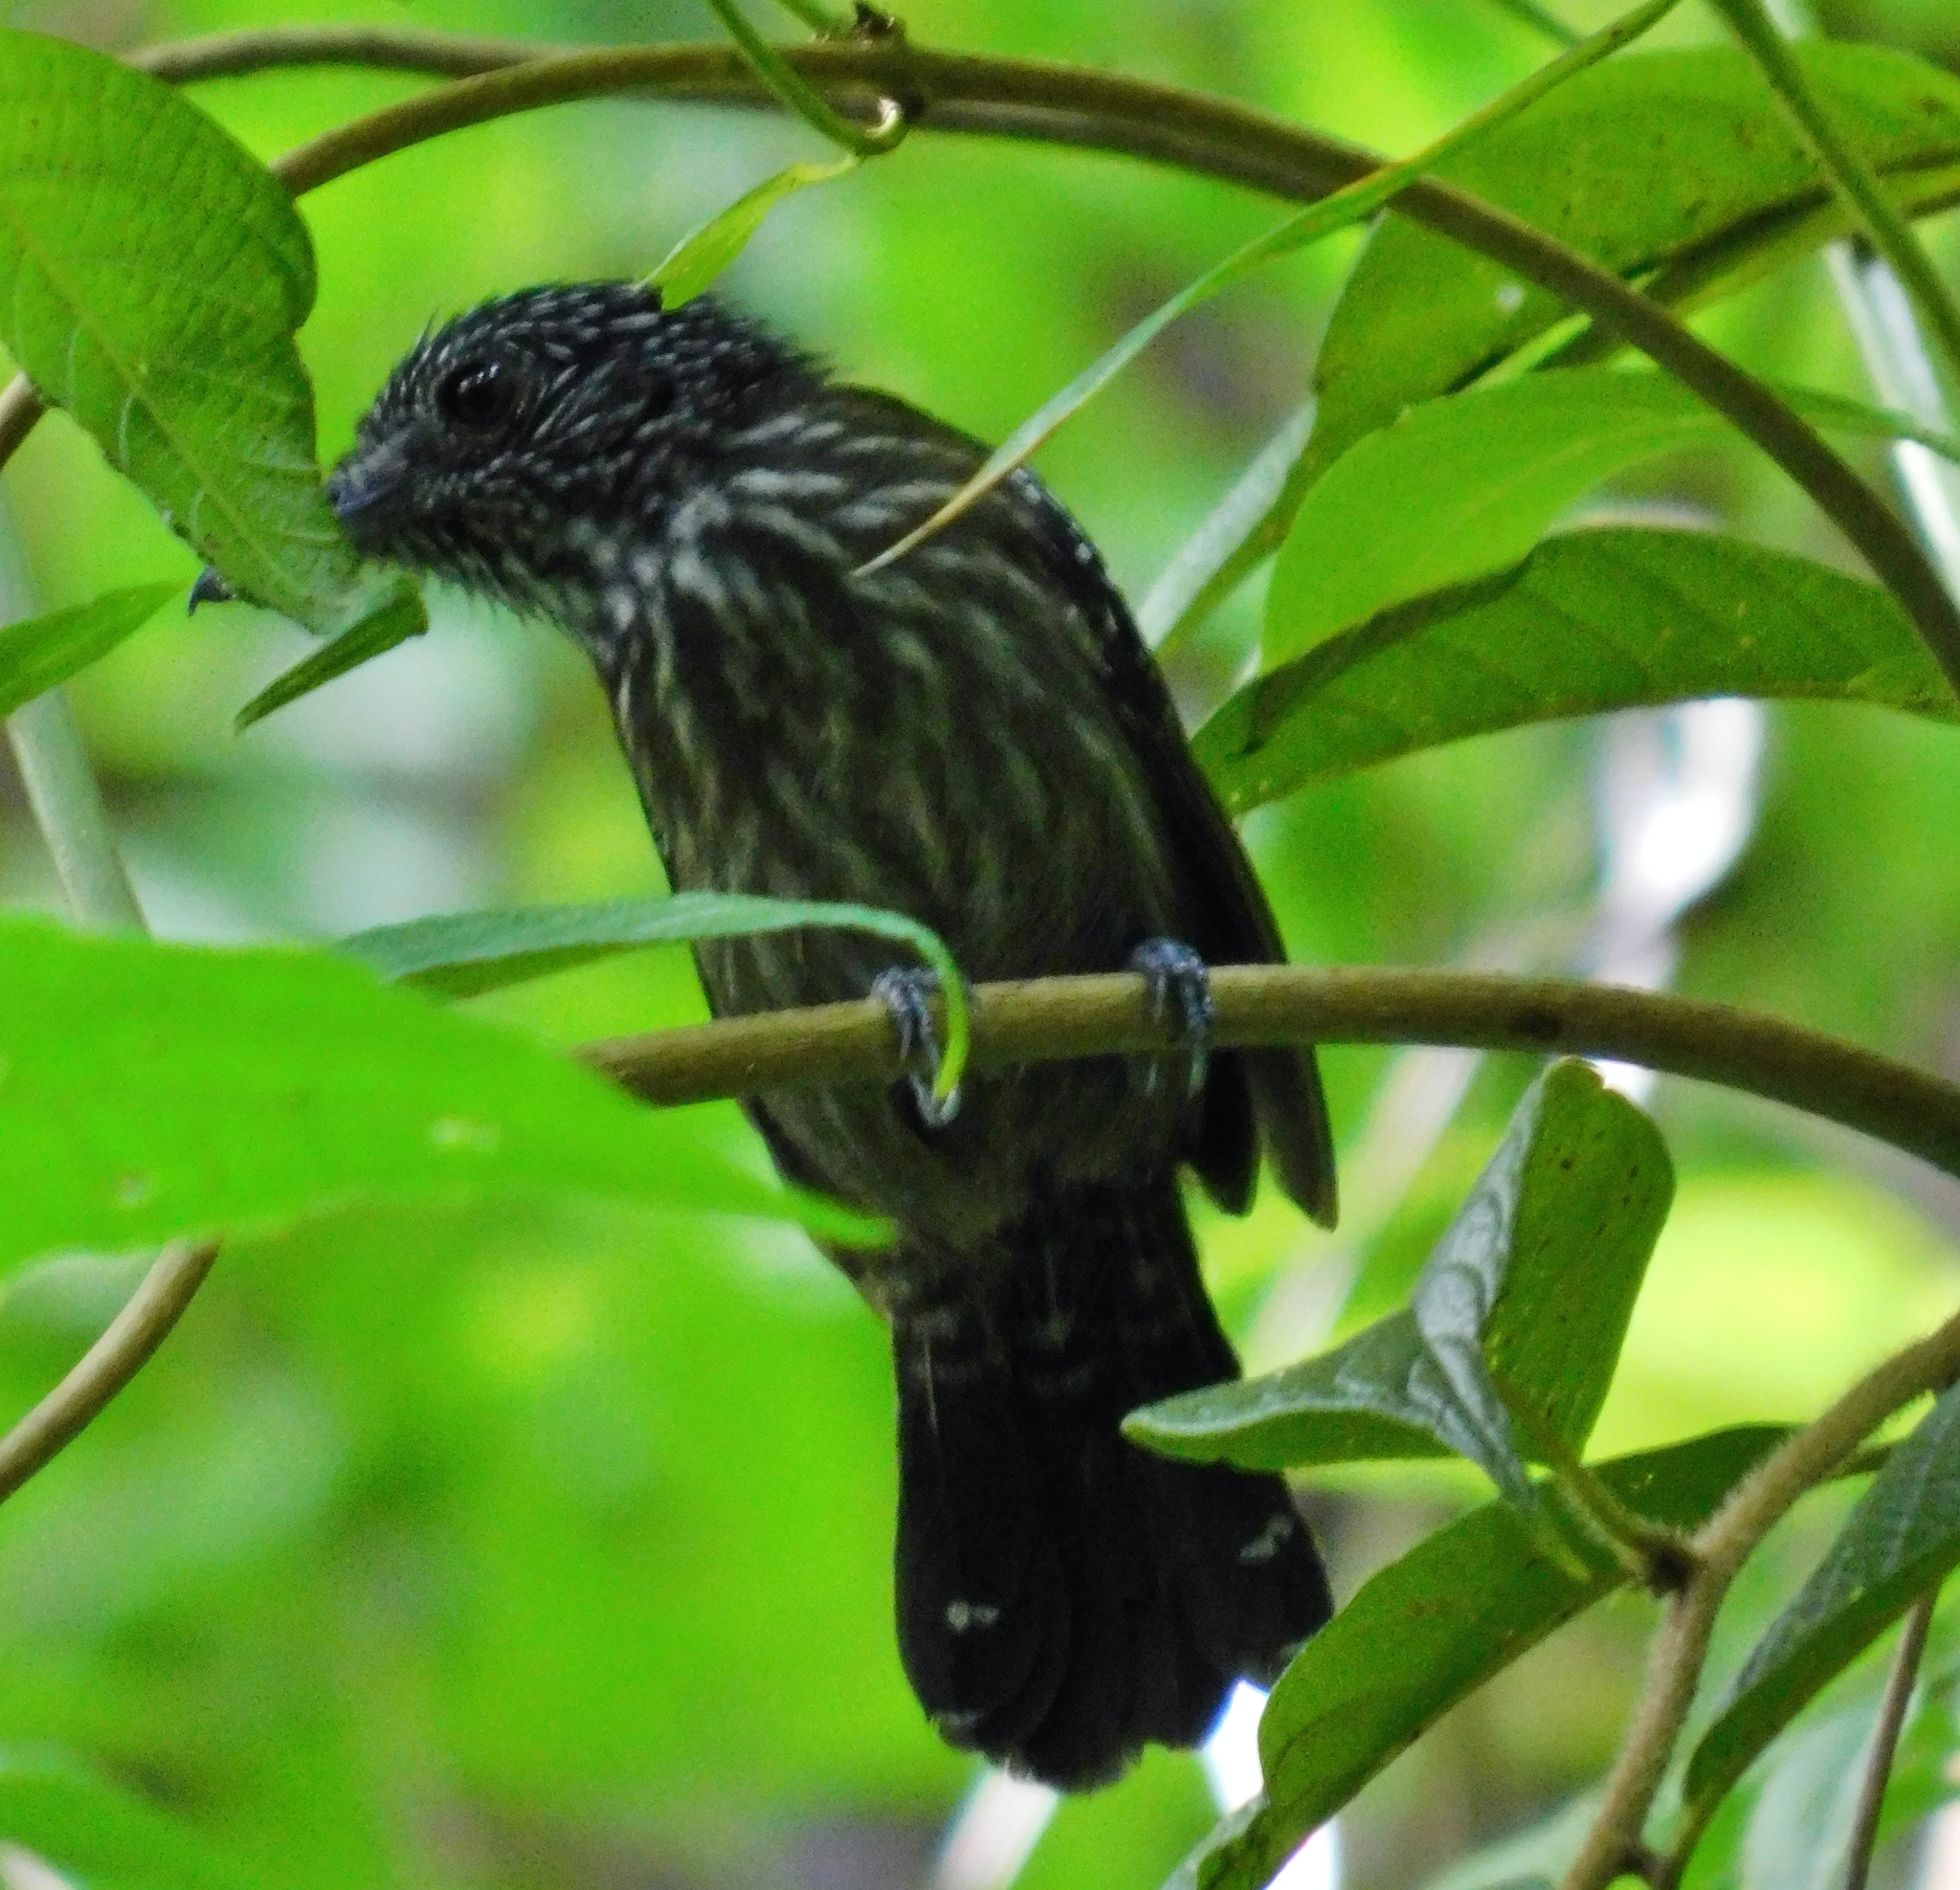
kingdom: Animalia
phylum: Chordata
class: Aves
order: Passeriformes
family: Thamnophilidae
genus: Thamnophilus
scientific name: Thamnophilus bridgesi
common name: Black-hooded antshrike
